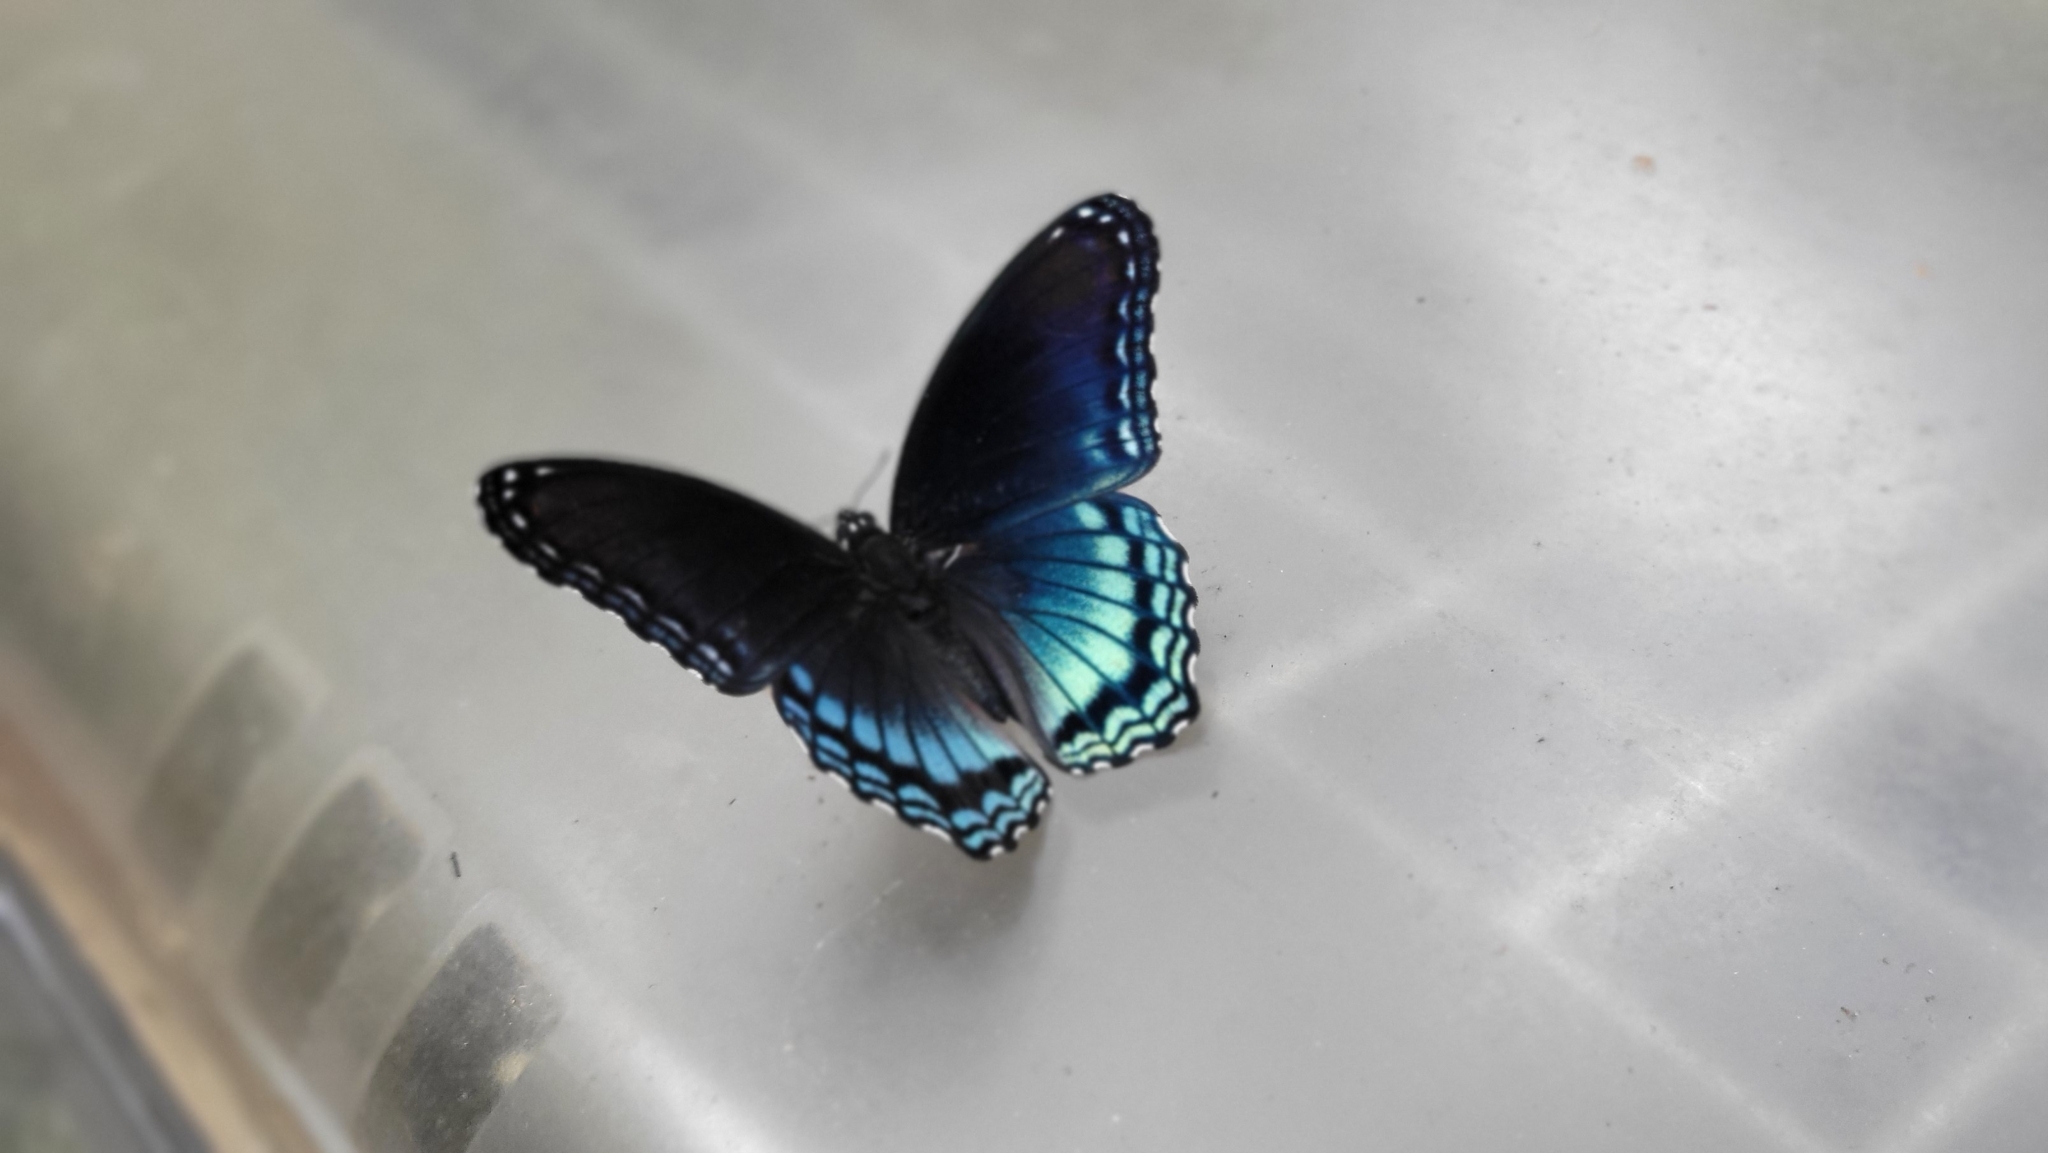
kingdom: Animalia
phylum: Arthropoda
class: Insecta
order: Lepidoptera
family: Nymphalidae
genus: Limenitis
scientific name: Limenitis astyanax
